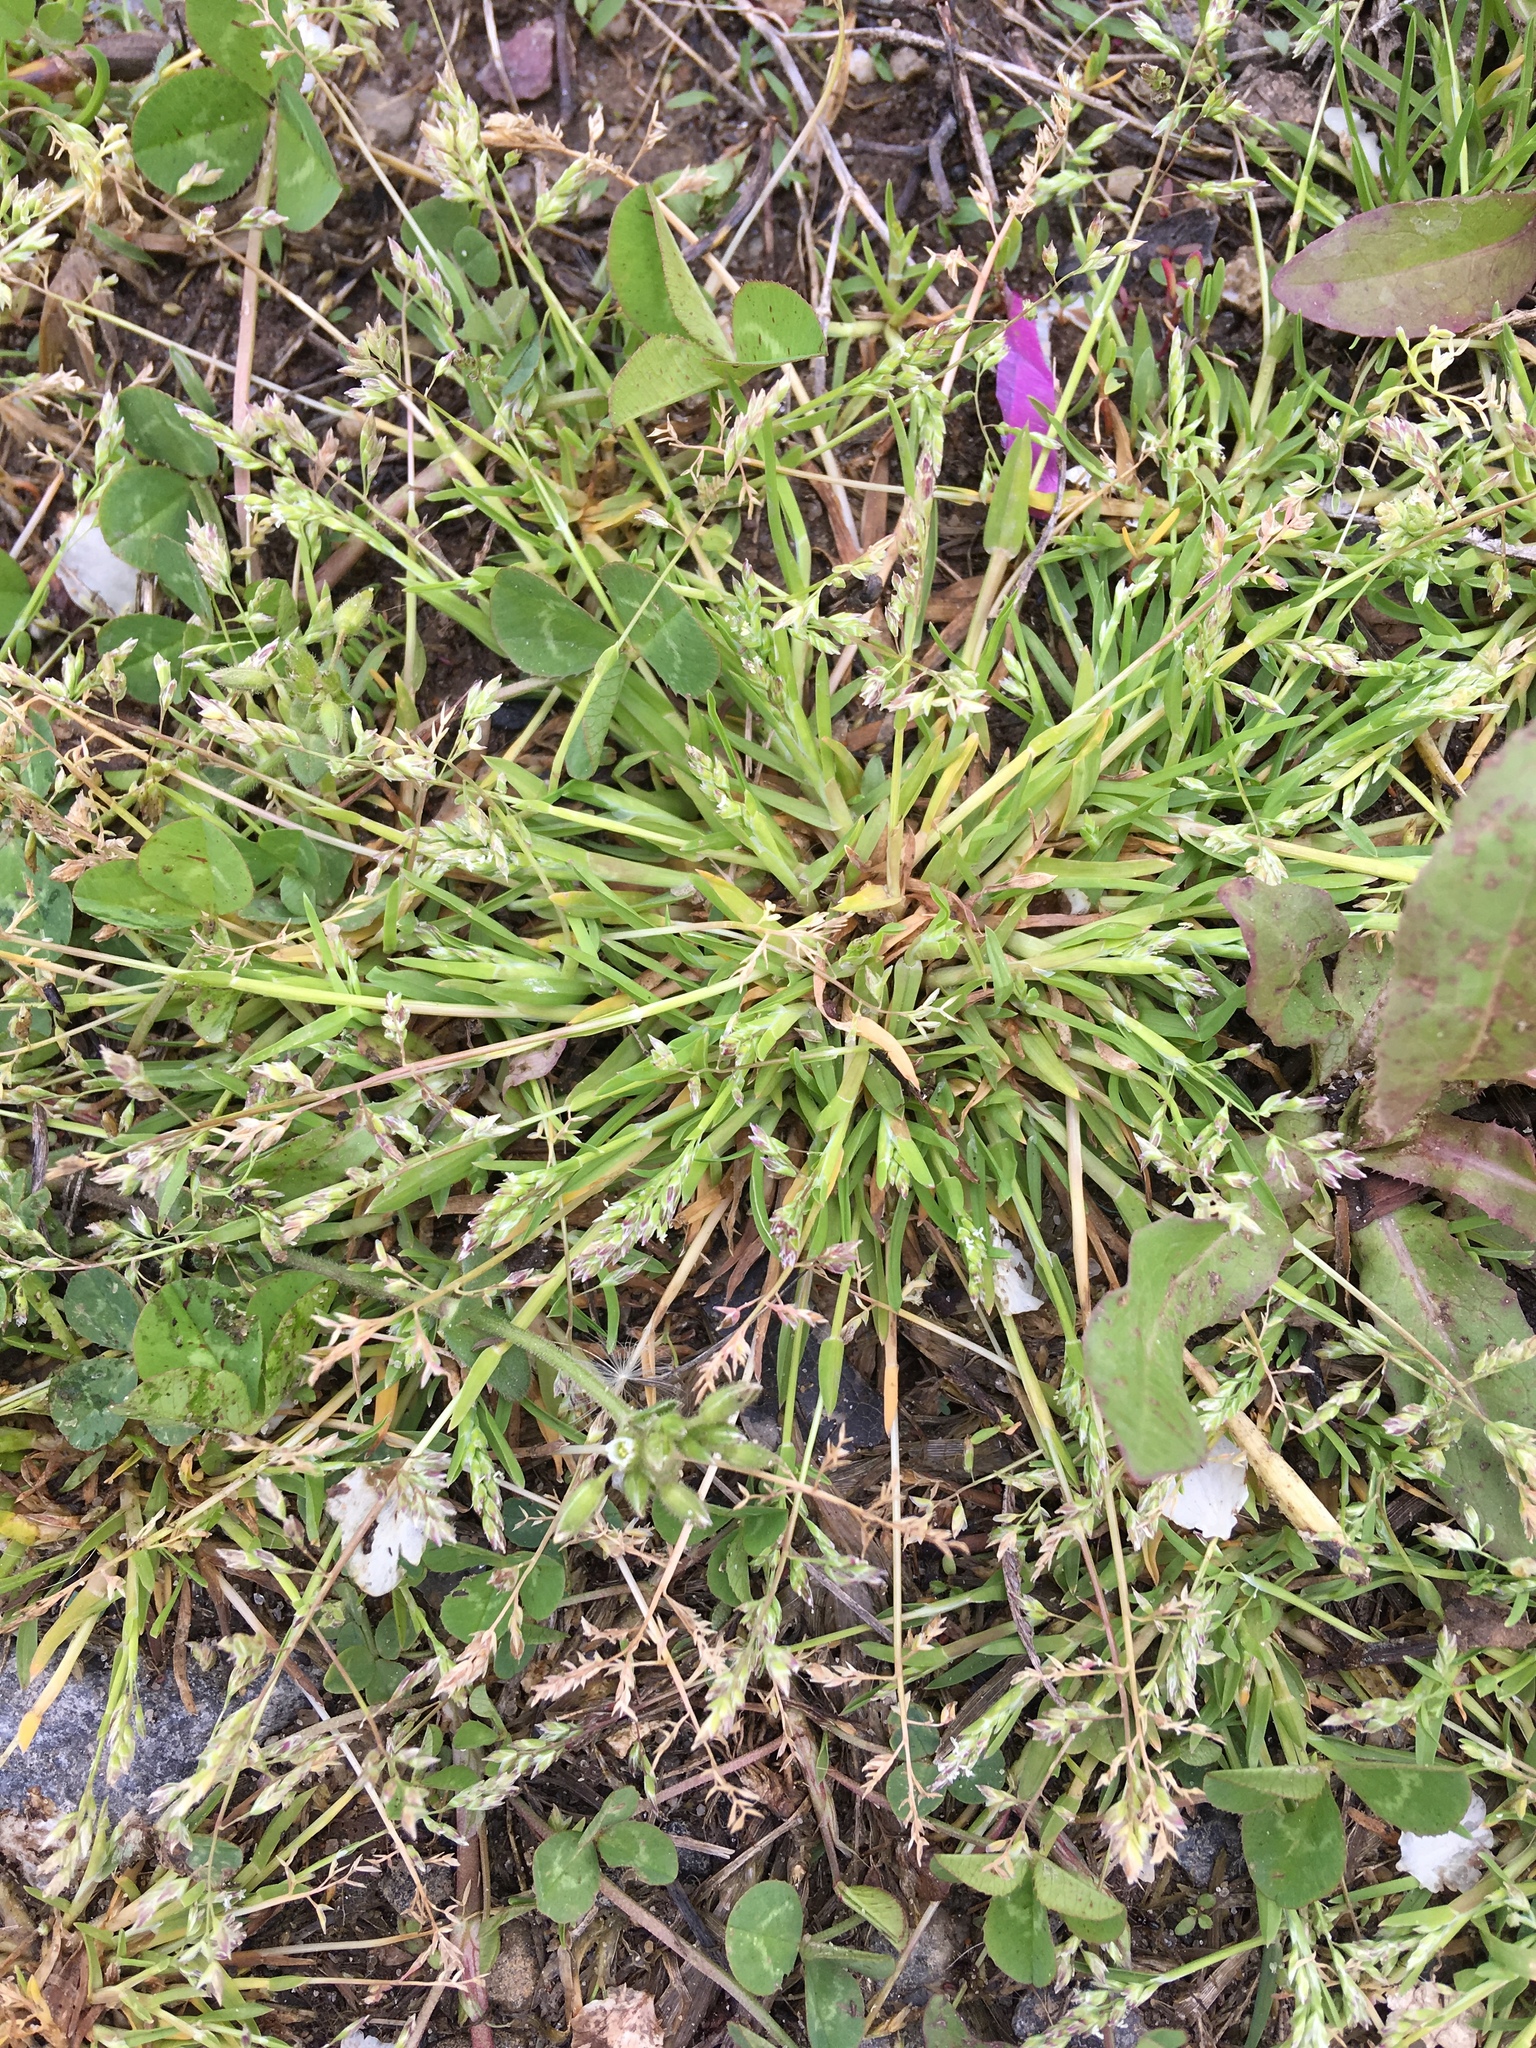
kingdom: Plantae
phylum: Tracheophyta
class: Liliopsida
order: Poales
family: Poaceae
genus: Poa
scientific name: Poa annua
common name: Annual bluegrass
